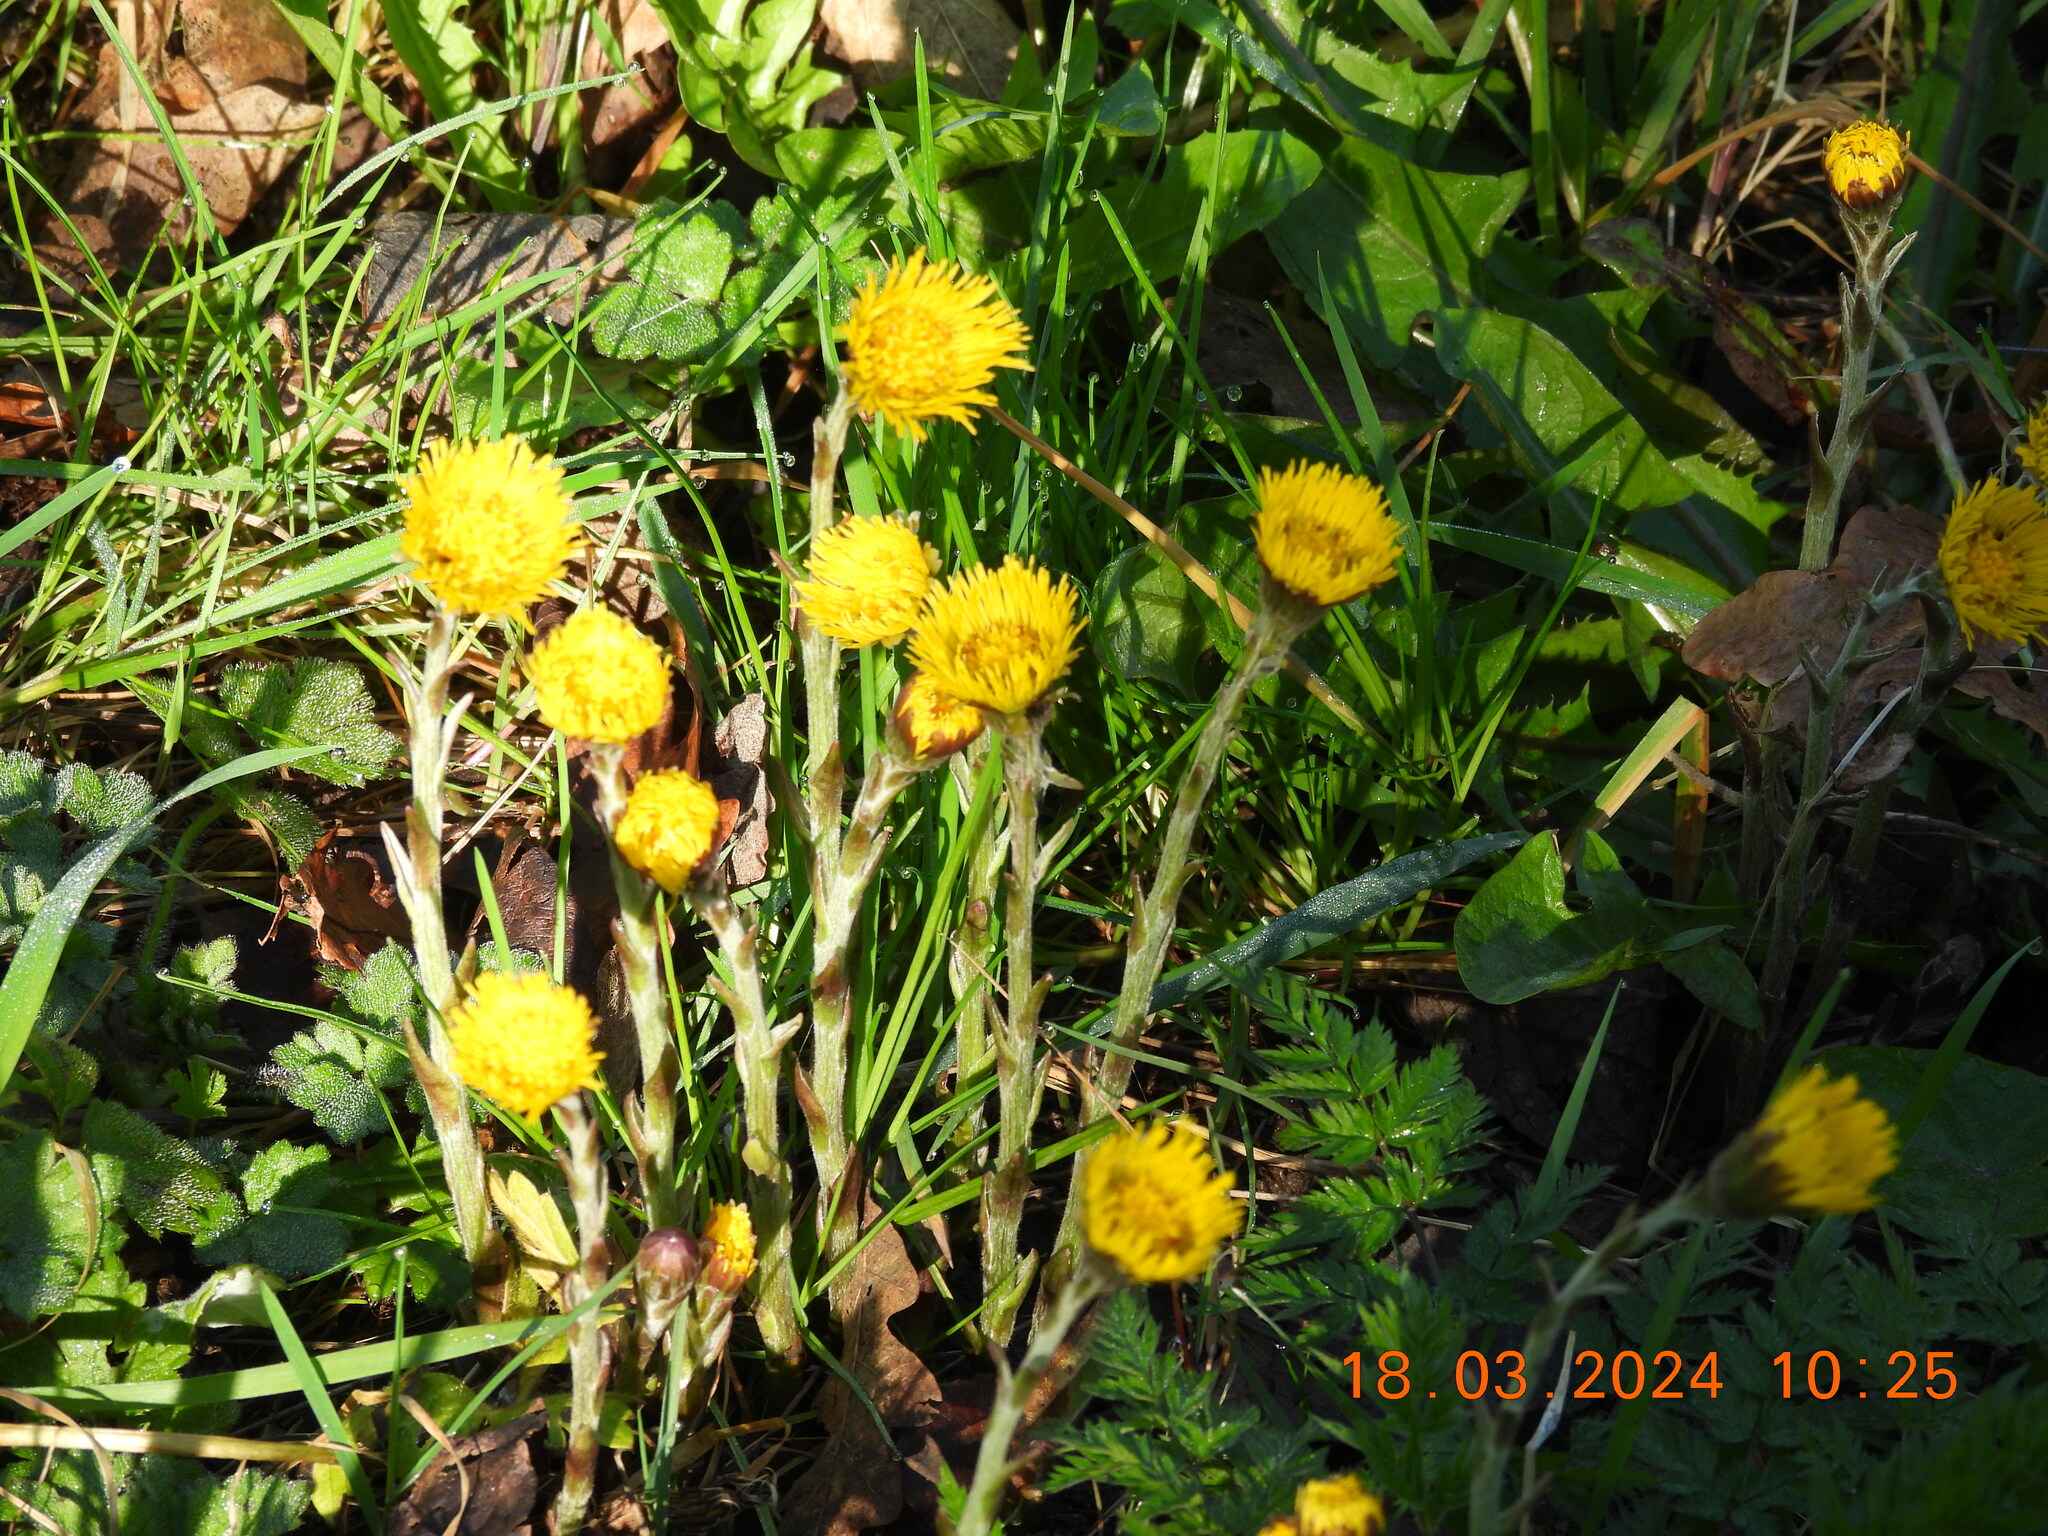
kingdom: Plantae
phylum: Tracheophyta
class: Magnoliopsida
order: Asterales
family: Asteraceae
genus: Tussilago
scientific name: Tussilago farfara
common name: Coltsfoot
